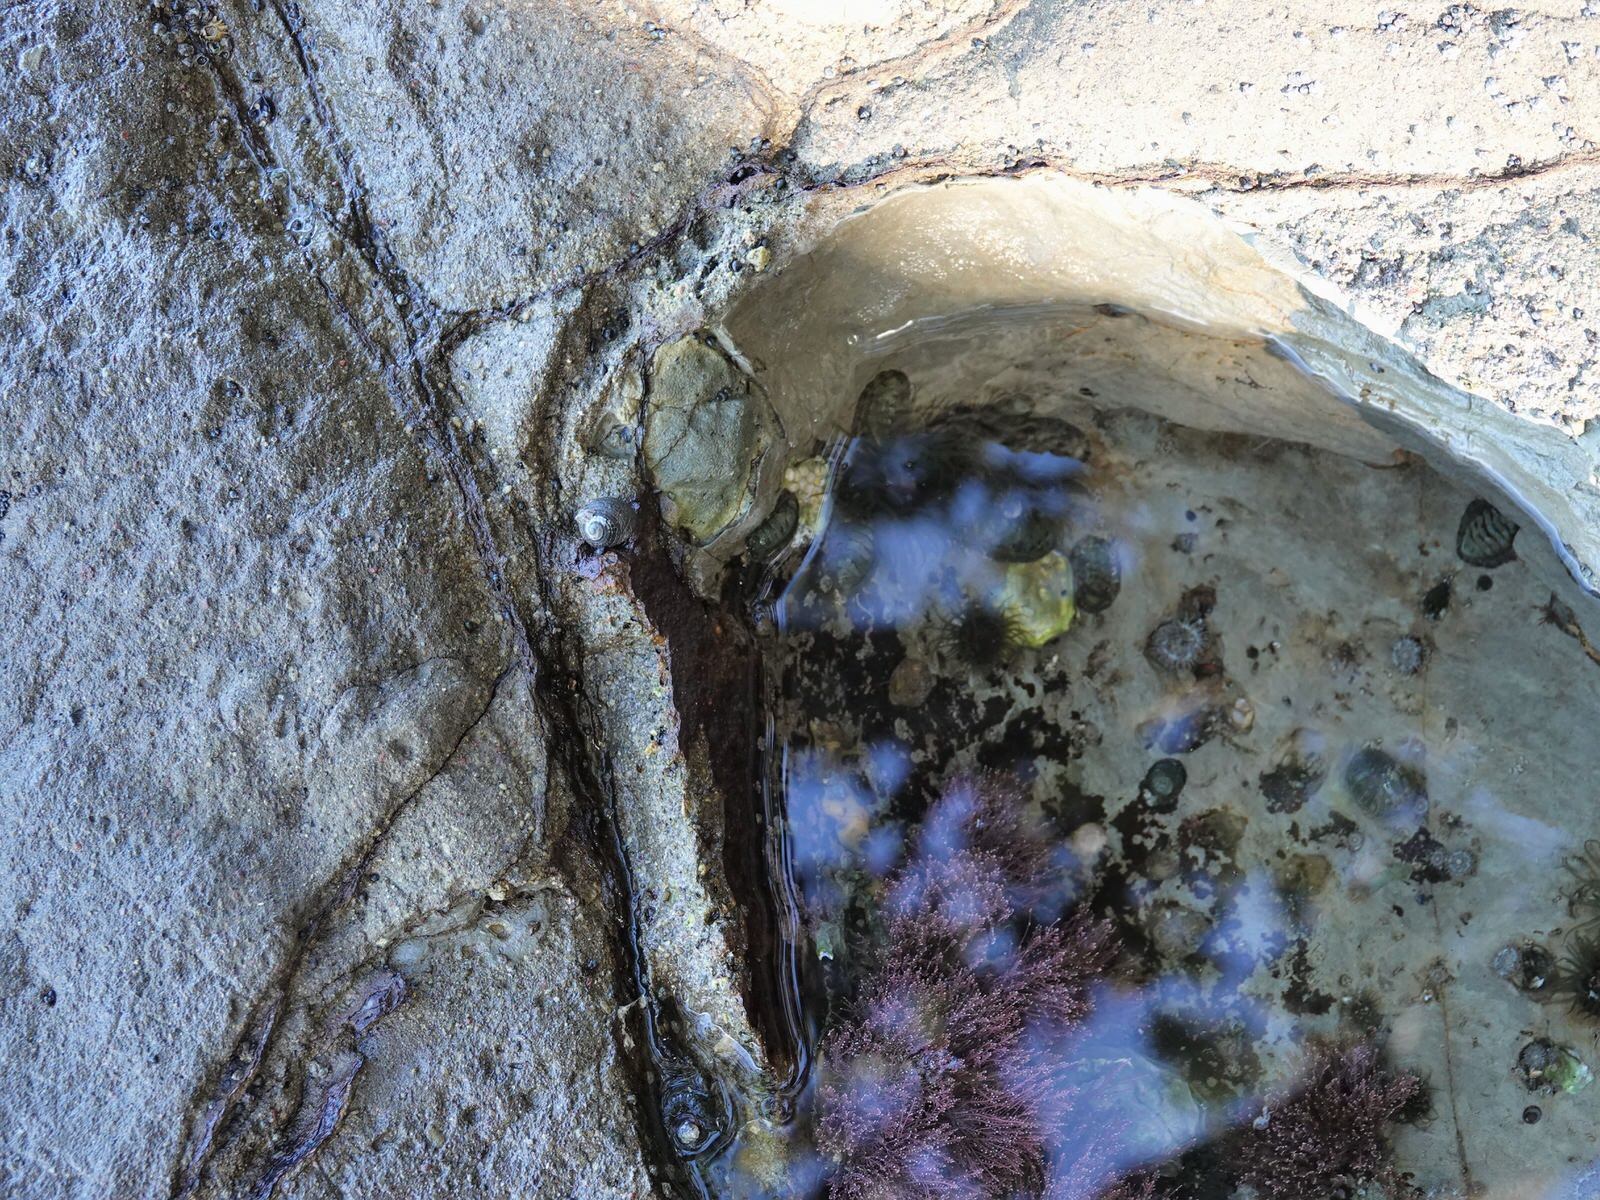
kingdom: Animalia
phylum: Mollusca
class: Gastropoda
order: Neogastropoda
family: Muricidae
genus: Haustrum
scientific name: Haustrum scobina
